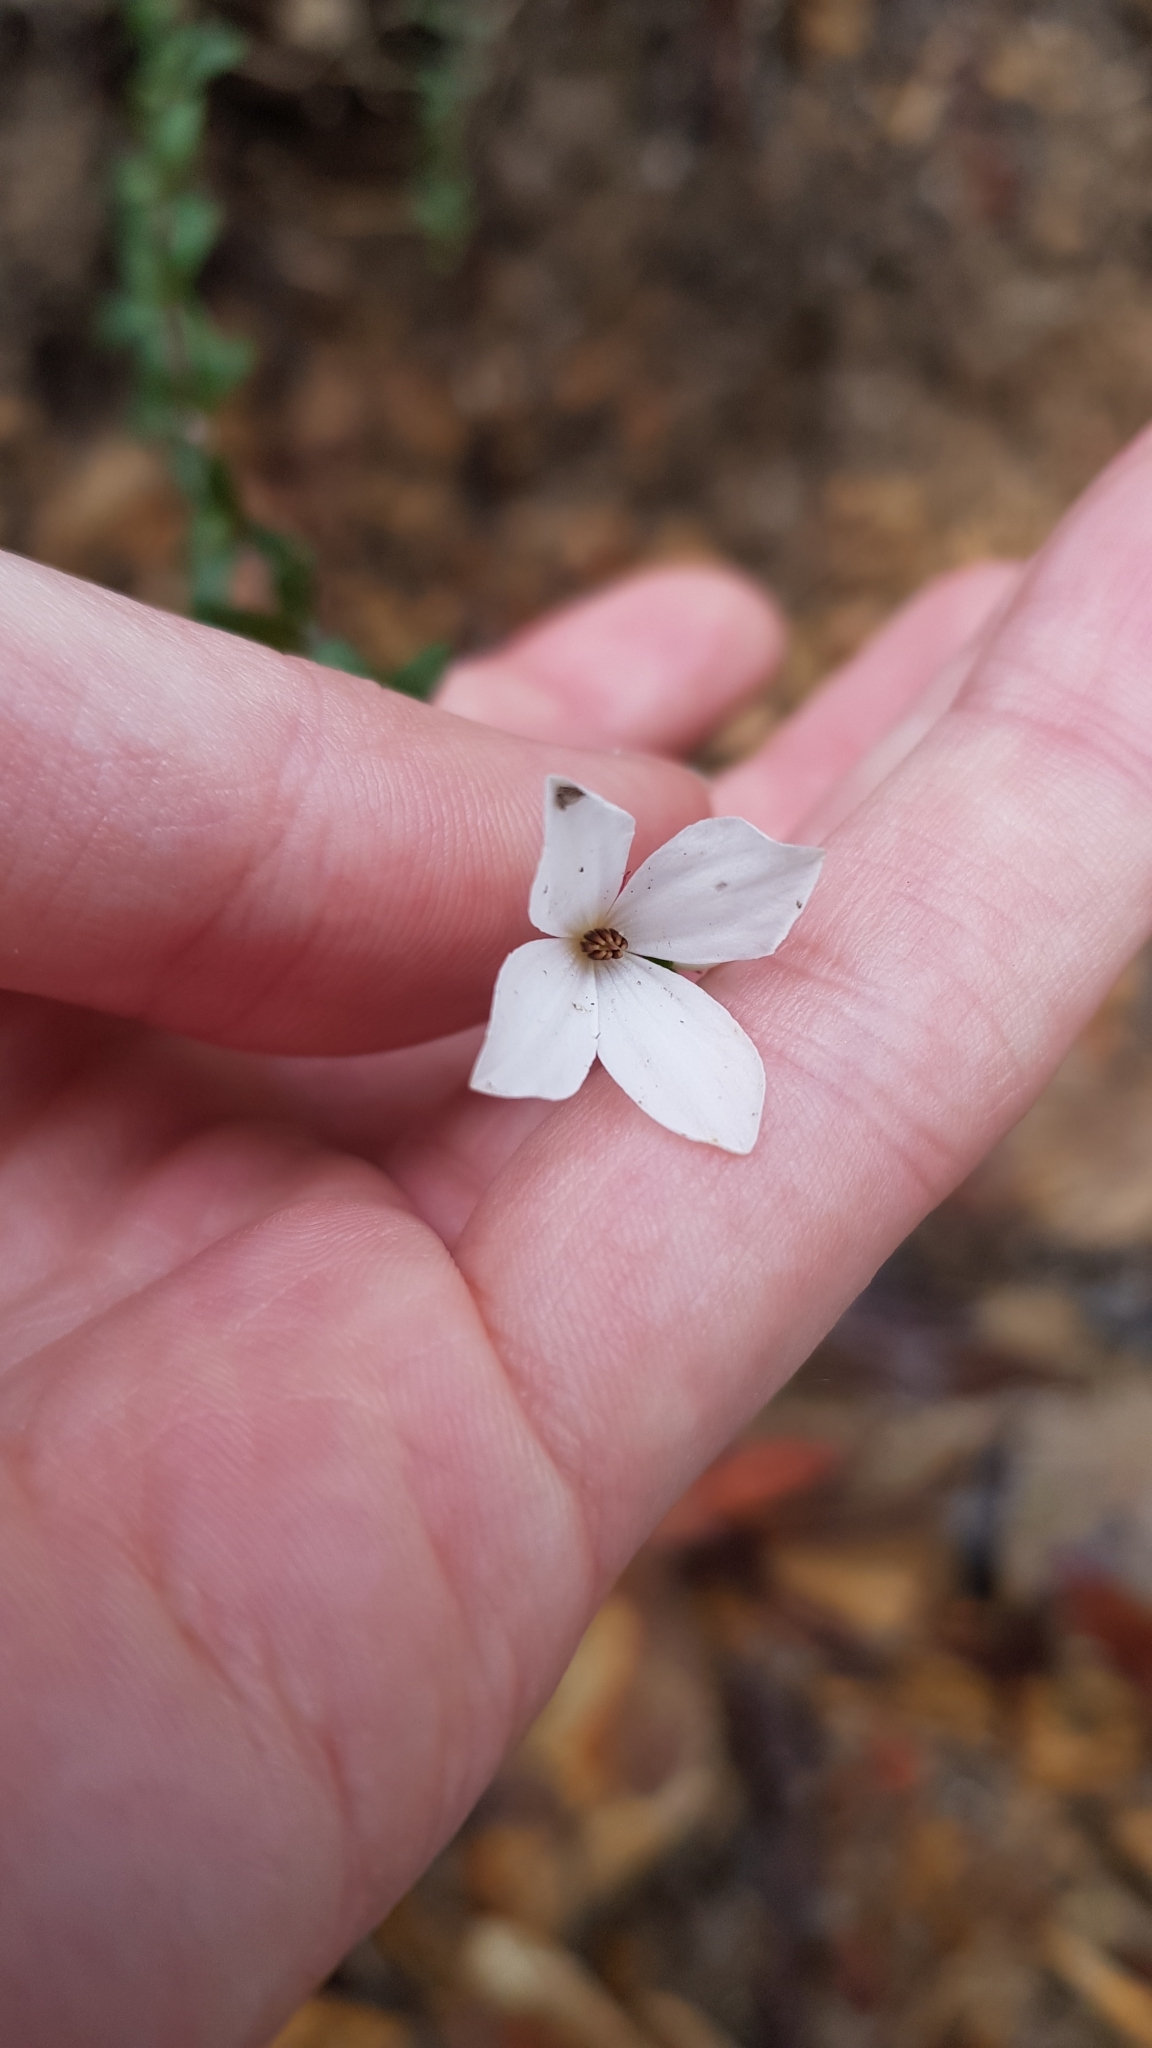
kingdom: Plantae
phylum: Tracheophyta
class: Magnoliopsida
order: Oxalidales
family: Elaeocarpaceae
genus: Tetratheca
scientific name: Tetratheca thymifolia
